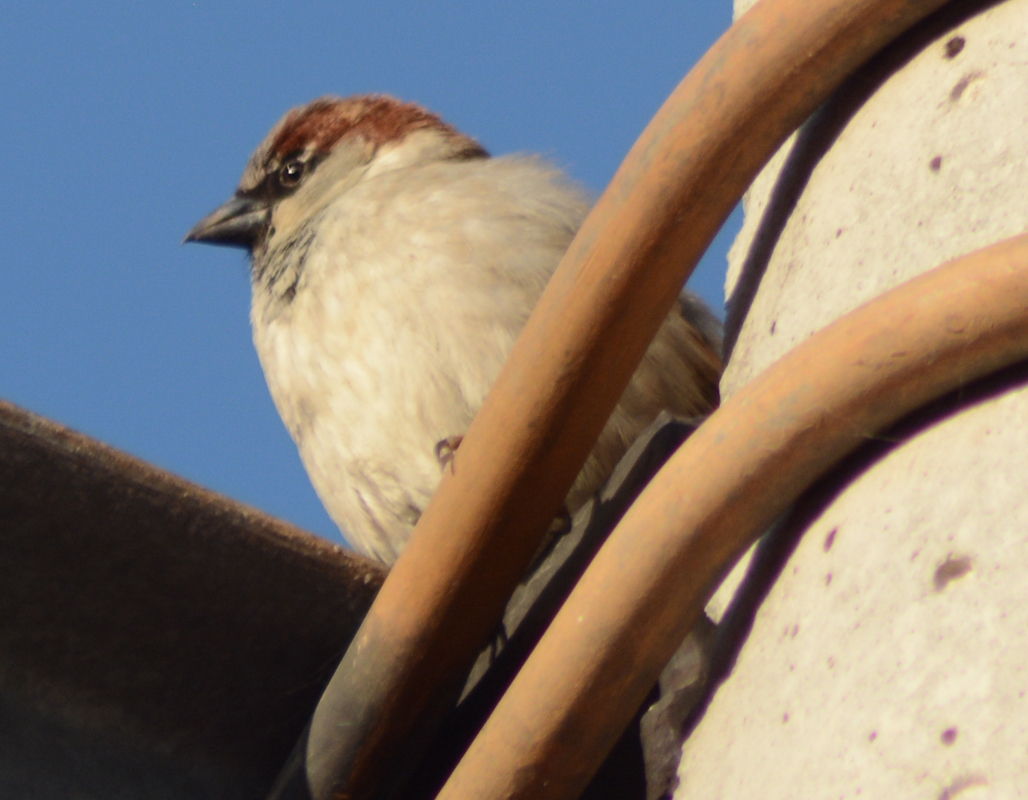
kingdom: Animalia
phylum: Chordata
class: Aves
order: Passeriformes
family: Passeridae
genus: Passer
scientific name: Passer domesticus
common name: House sparrow
